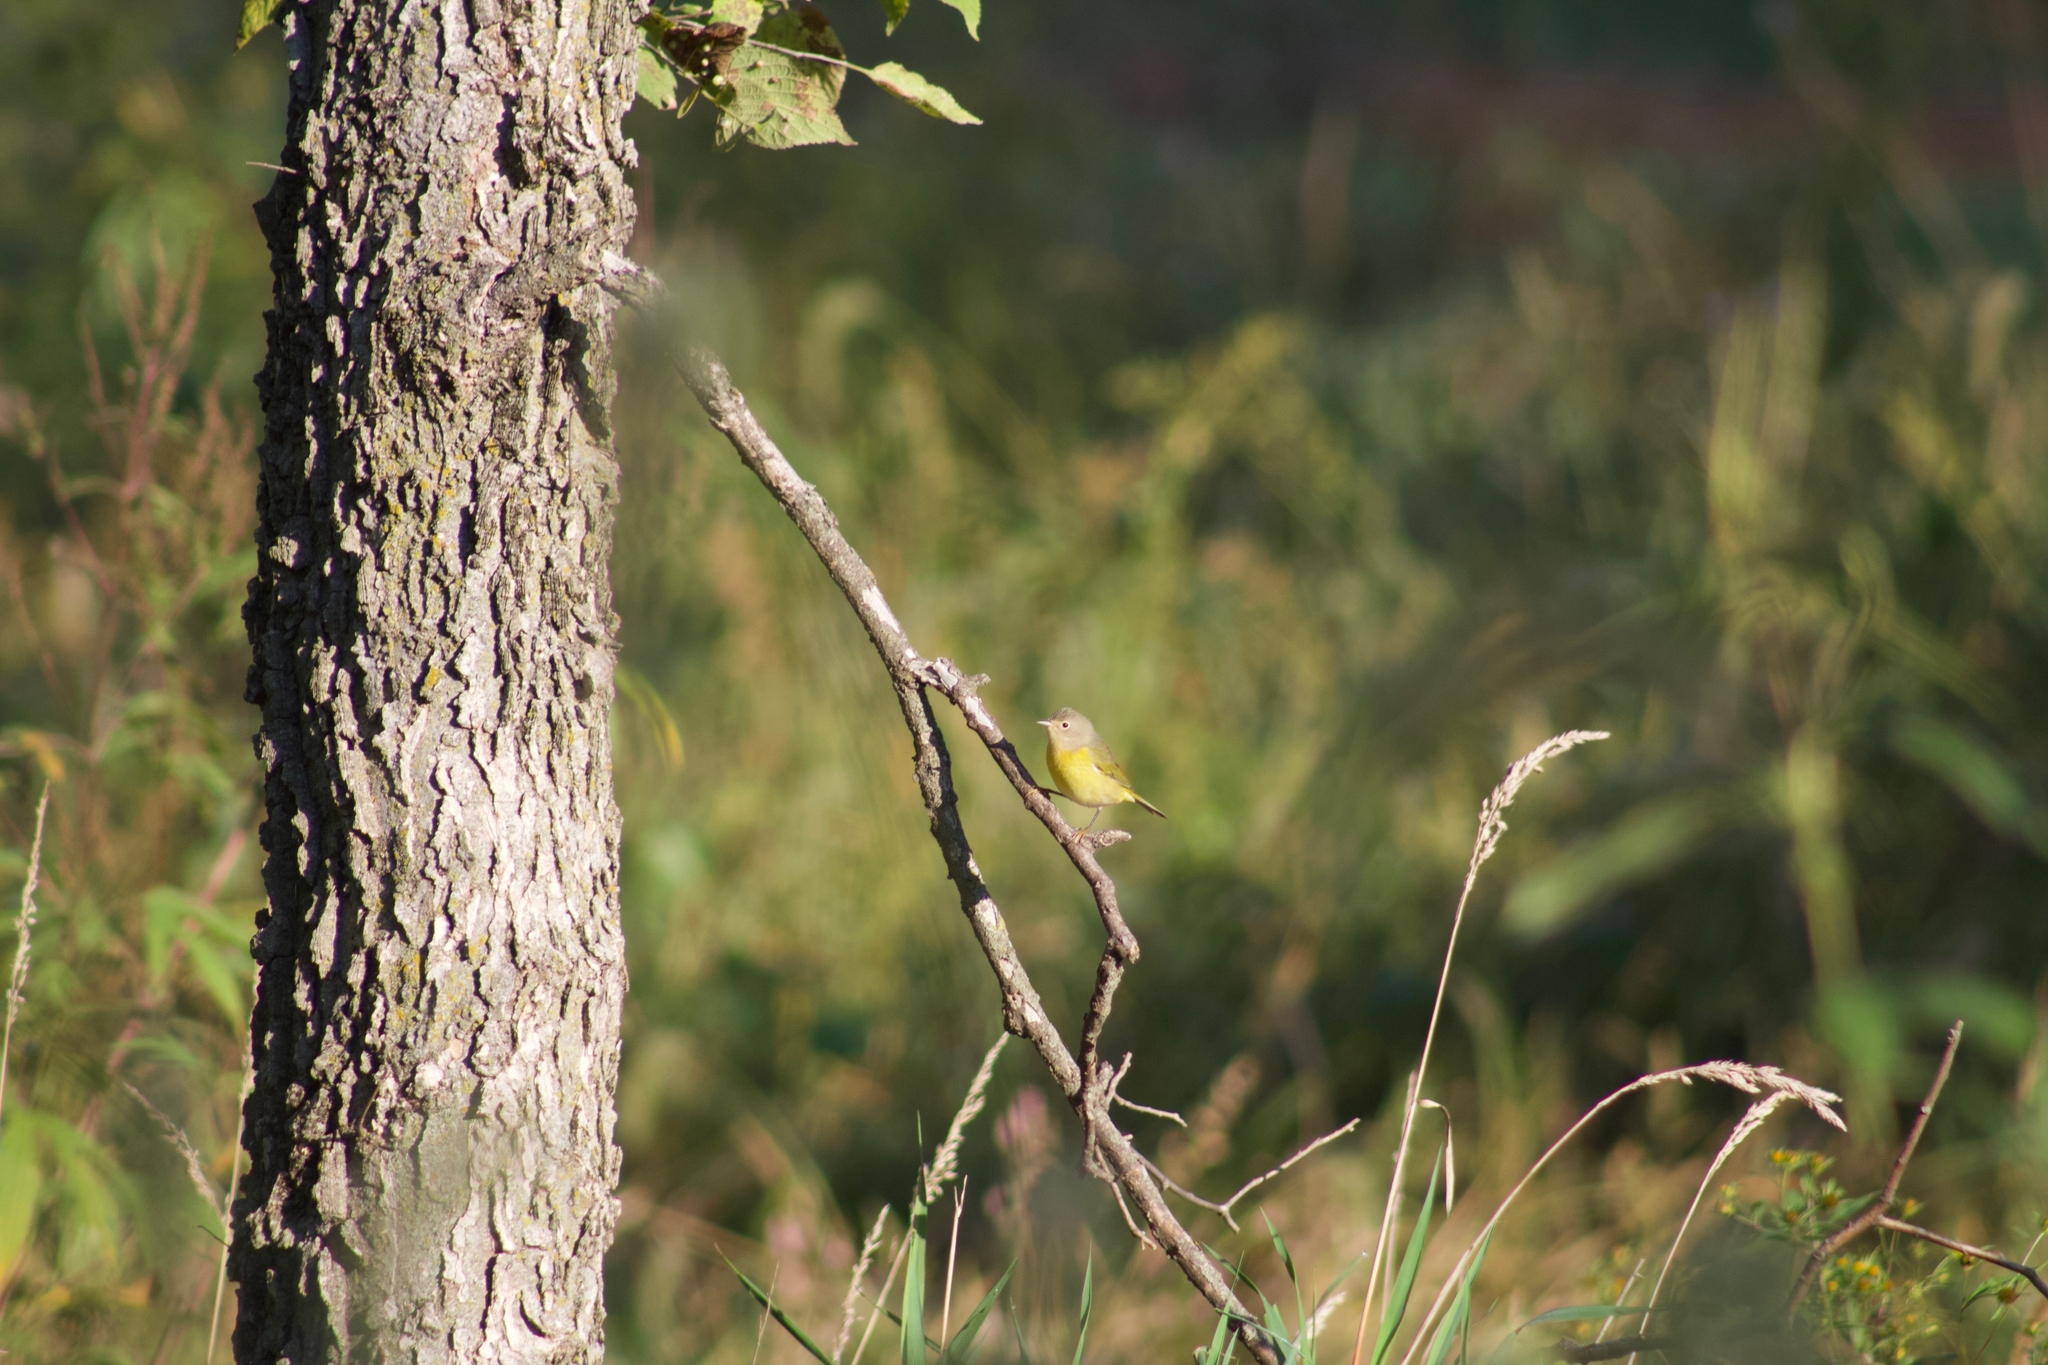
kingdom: Animalia
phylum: Chordata
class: Aves
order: Passeriformes
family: Parulidae
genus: Leiothlypis
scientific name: Leiothlypis ruficapilla
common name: Nashville warbler
